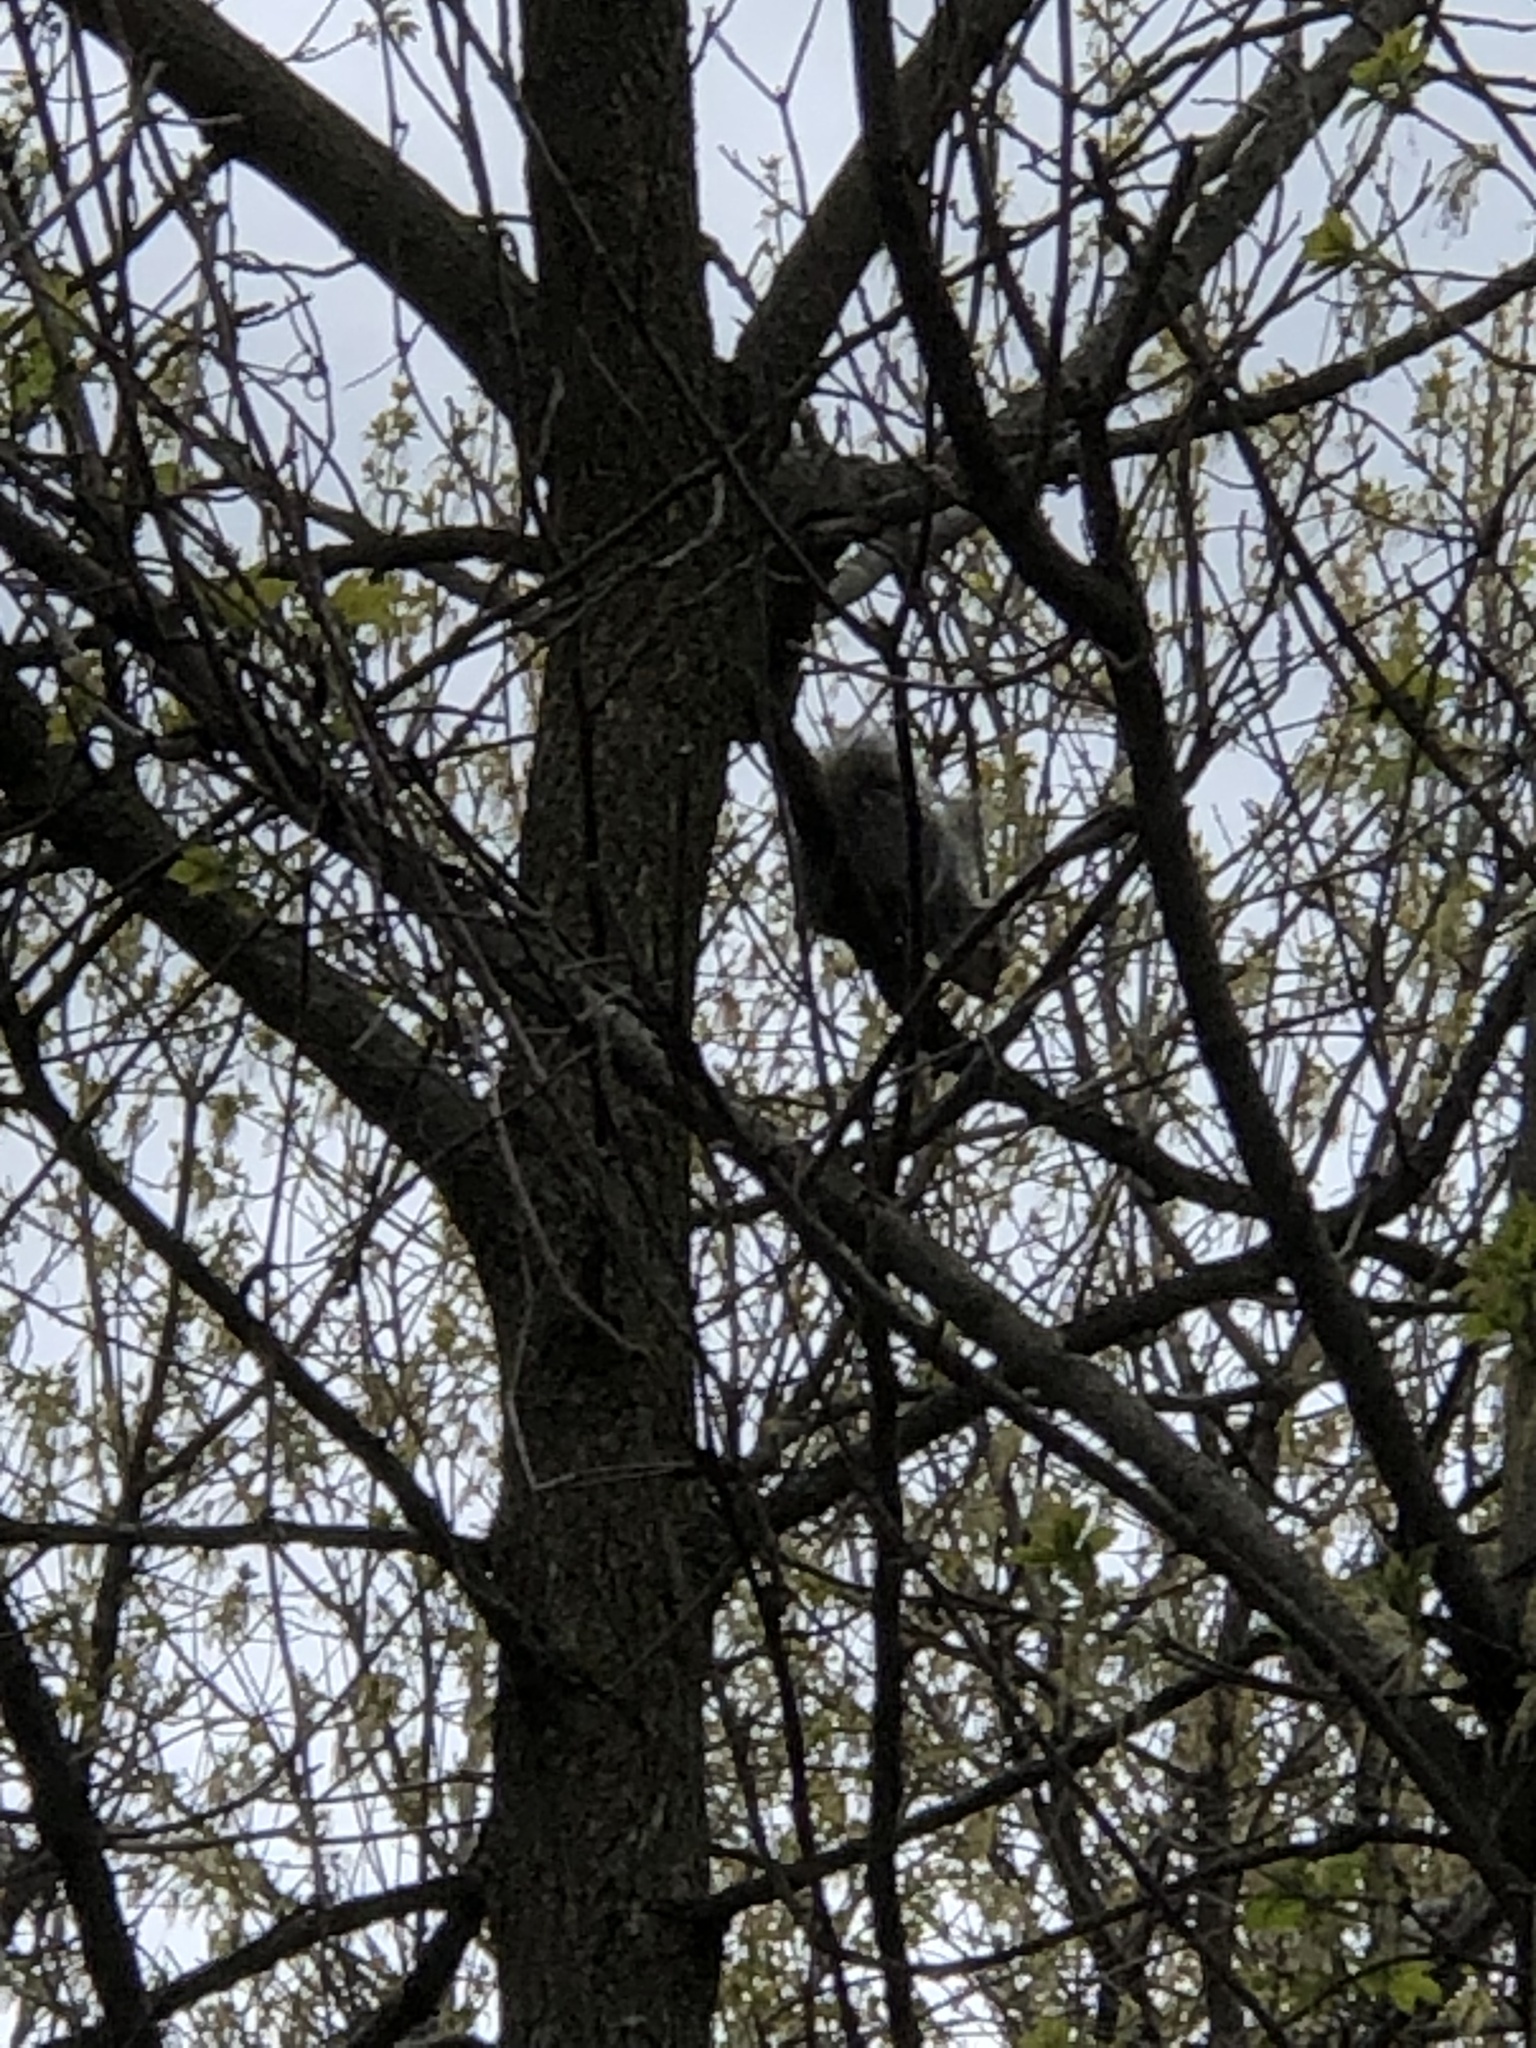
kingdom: Animalia
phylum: Chordata
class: Mammalia
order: Rodentia
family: Sciuridae
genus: Sciurus
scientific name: Sciurus carolinensis
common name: Eastern gray squirrel
